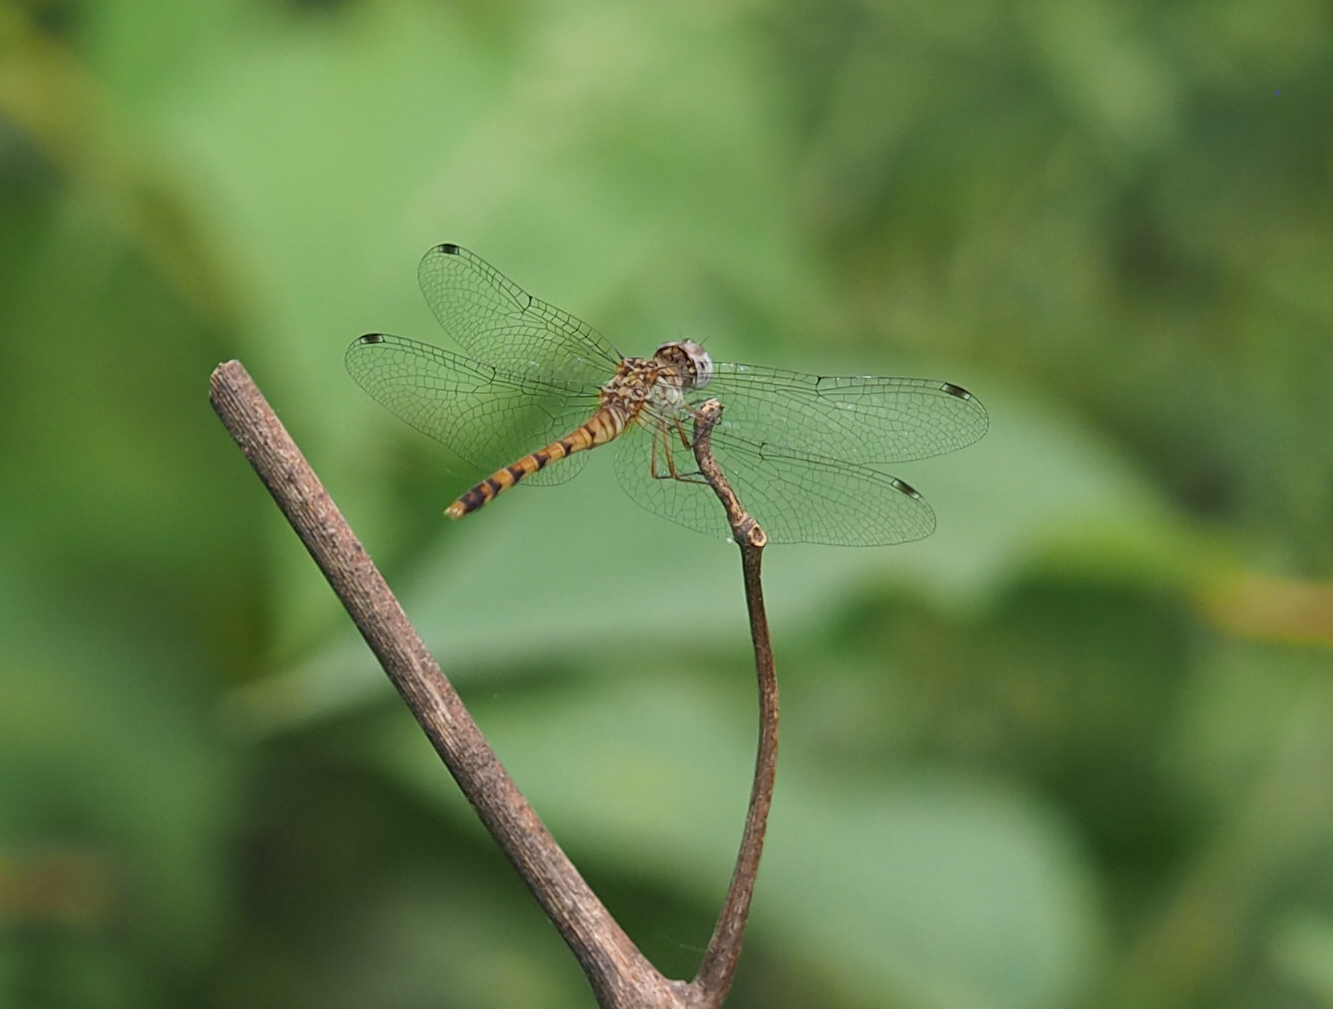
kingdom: Animalia
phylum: Arthropoda
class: Insecta
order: Odonata
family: Libellulidae
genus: Sympetrum
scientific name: Sympetrum ambiguum
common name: Blue-faced meadowhawk
